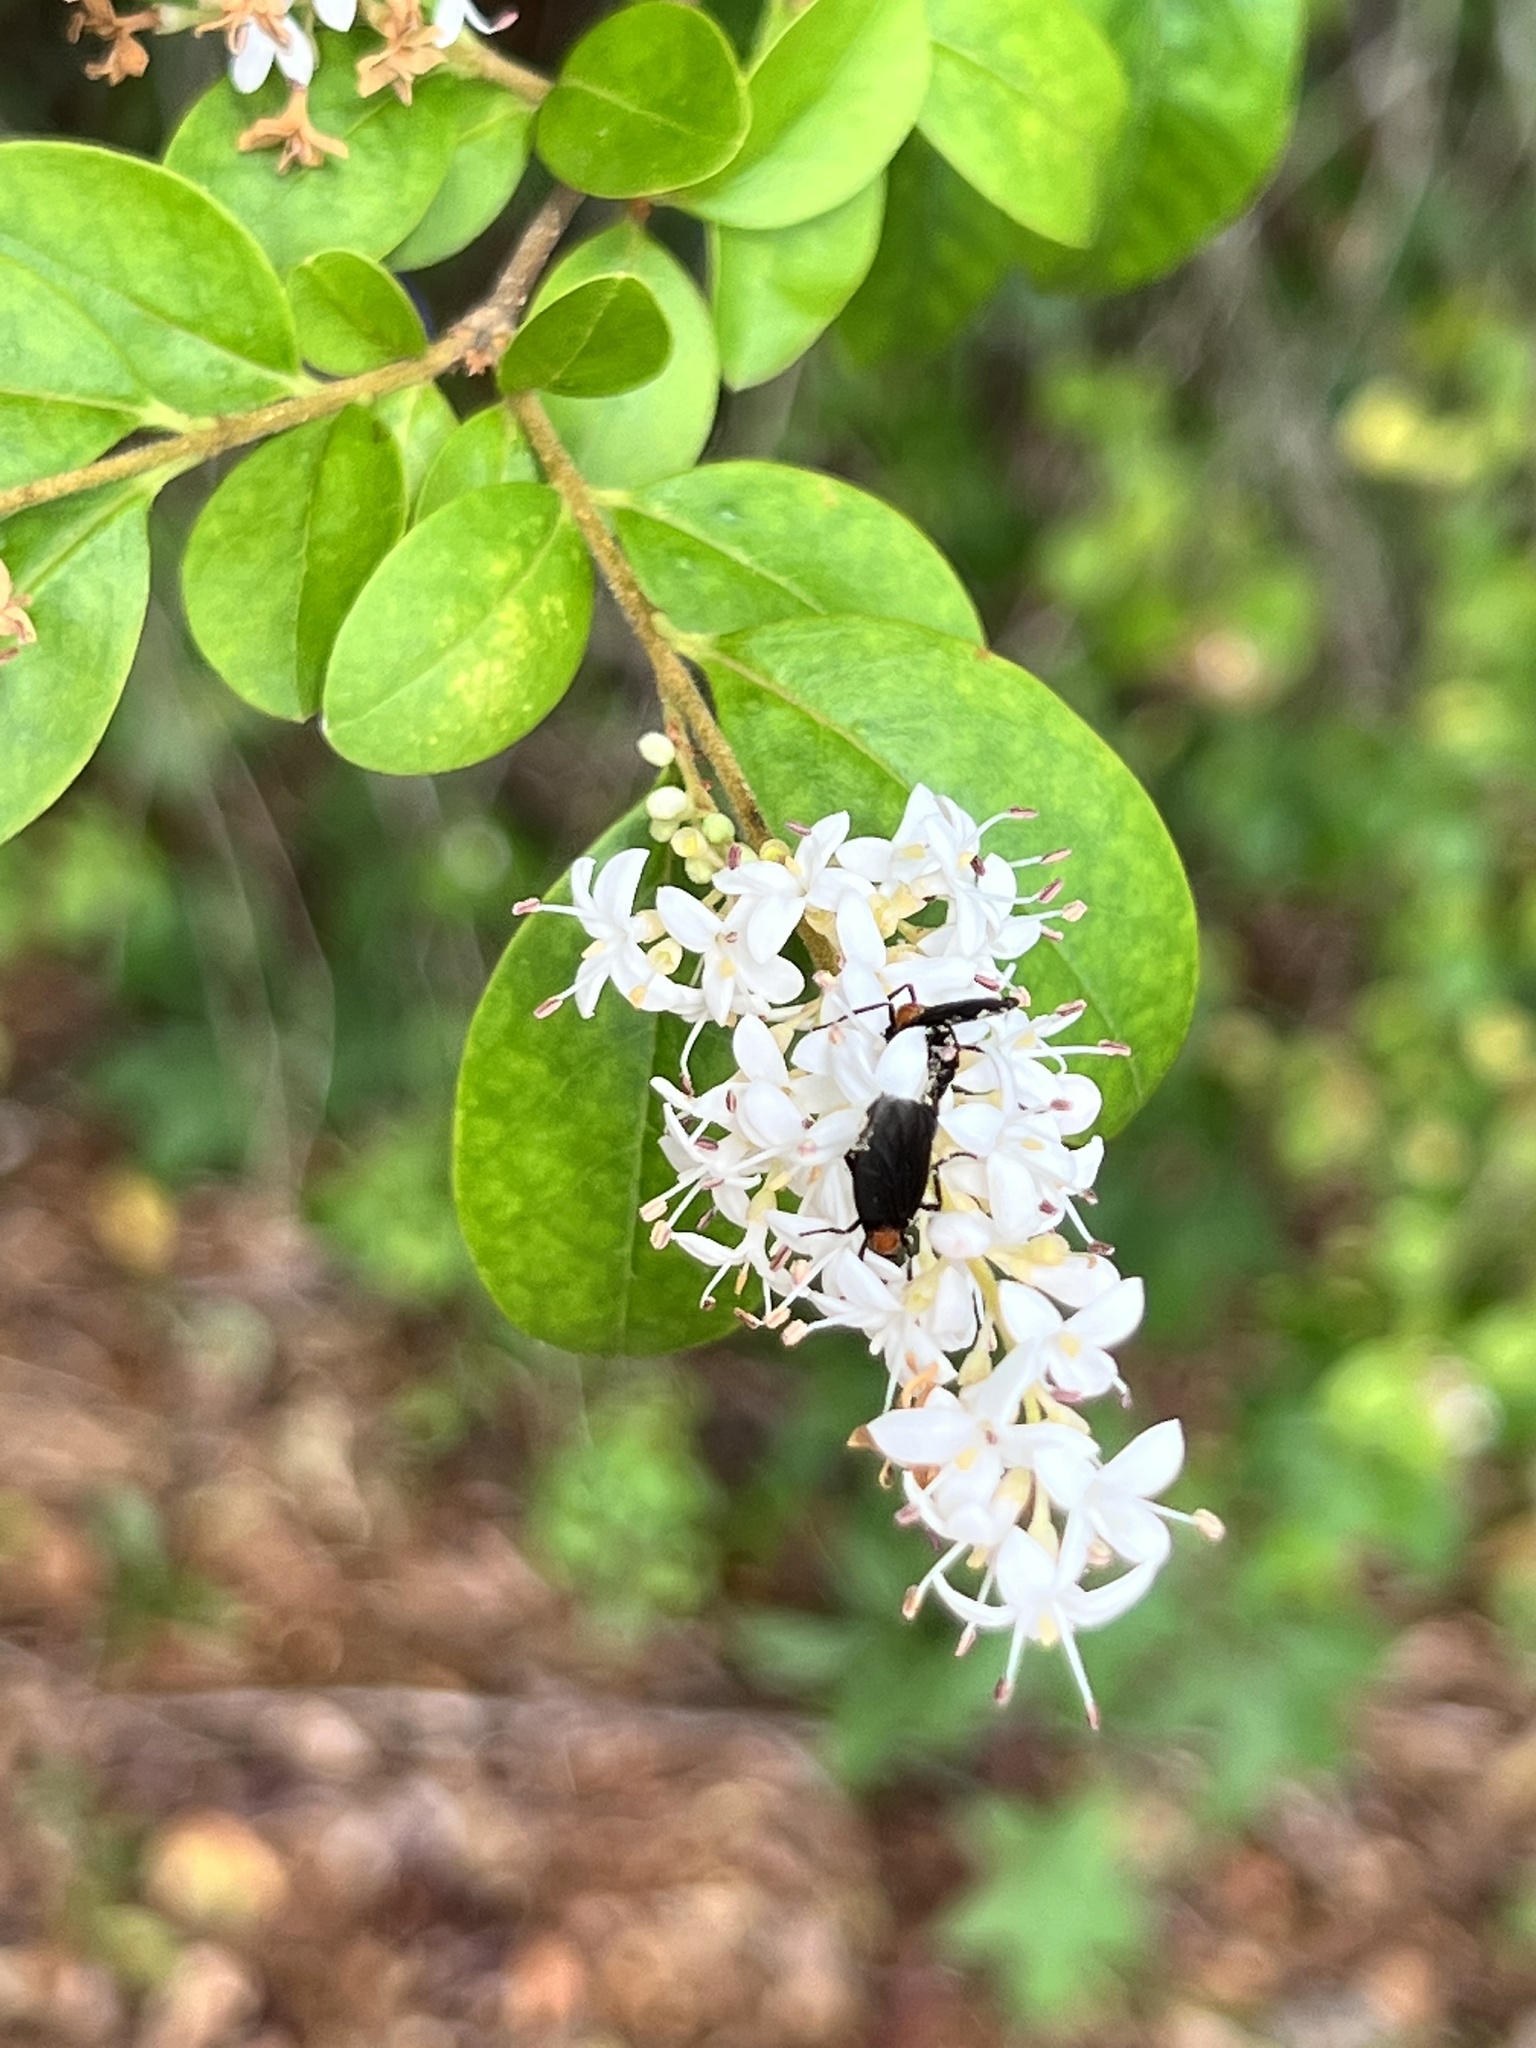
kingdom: Plantae
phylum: Tracheophyta
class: Magnoliopsida
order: Lamiales
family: Oleaceae
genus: Ligustrum
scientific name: Ligustrum sinense
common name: Chinese privet
